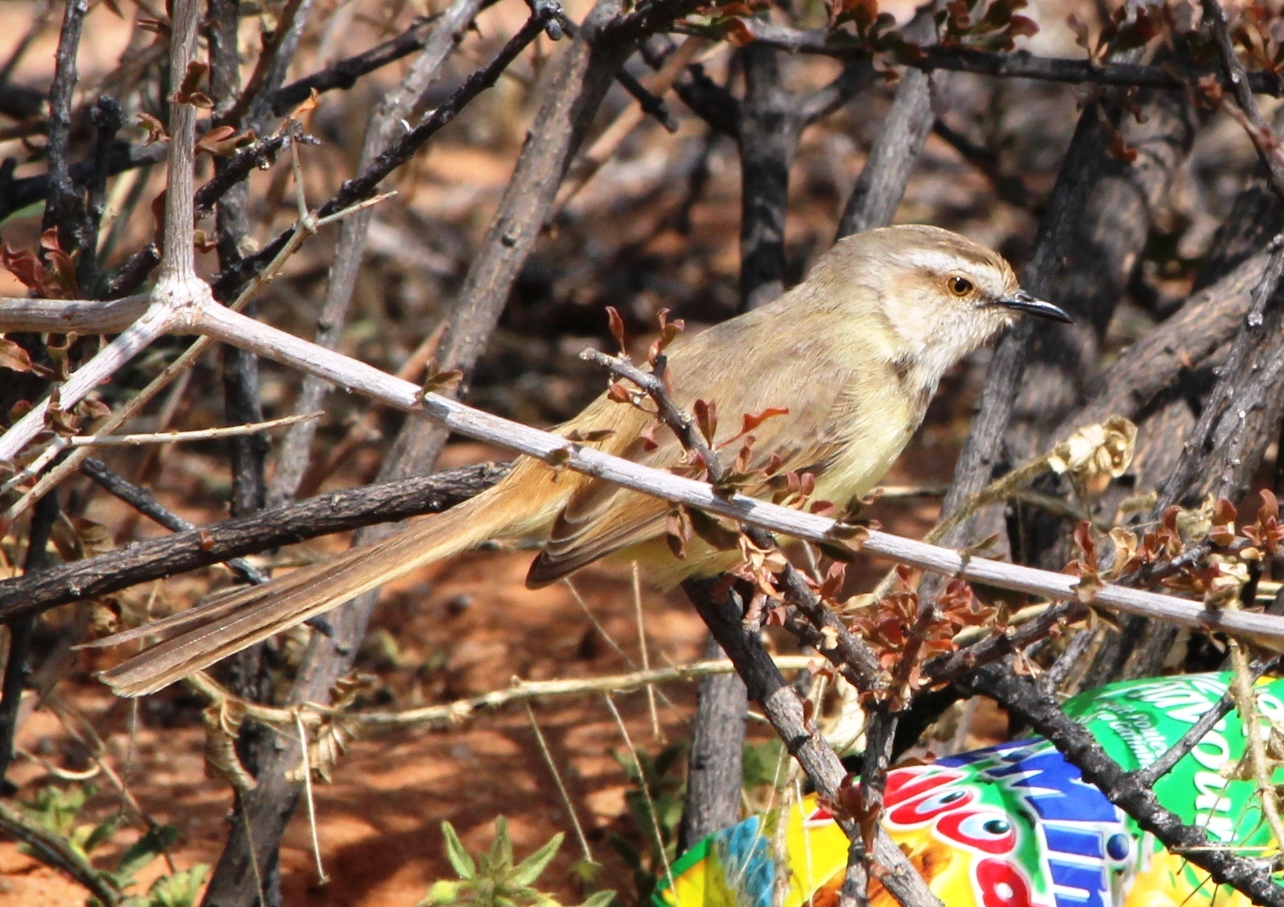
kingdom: Animalia
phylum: Chordata
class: Aves
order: Passeriformes
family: Cisticolidae
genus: Prinia
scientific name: Prinia flavicans
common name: Black-chested prinia
